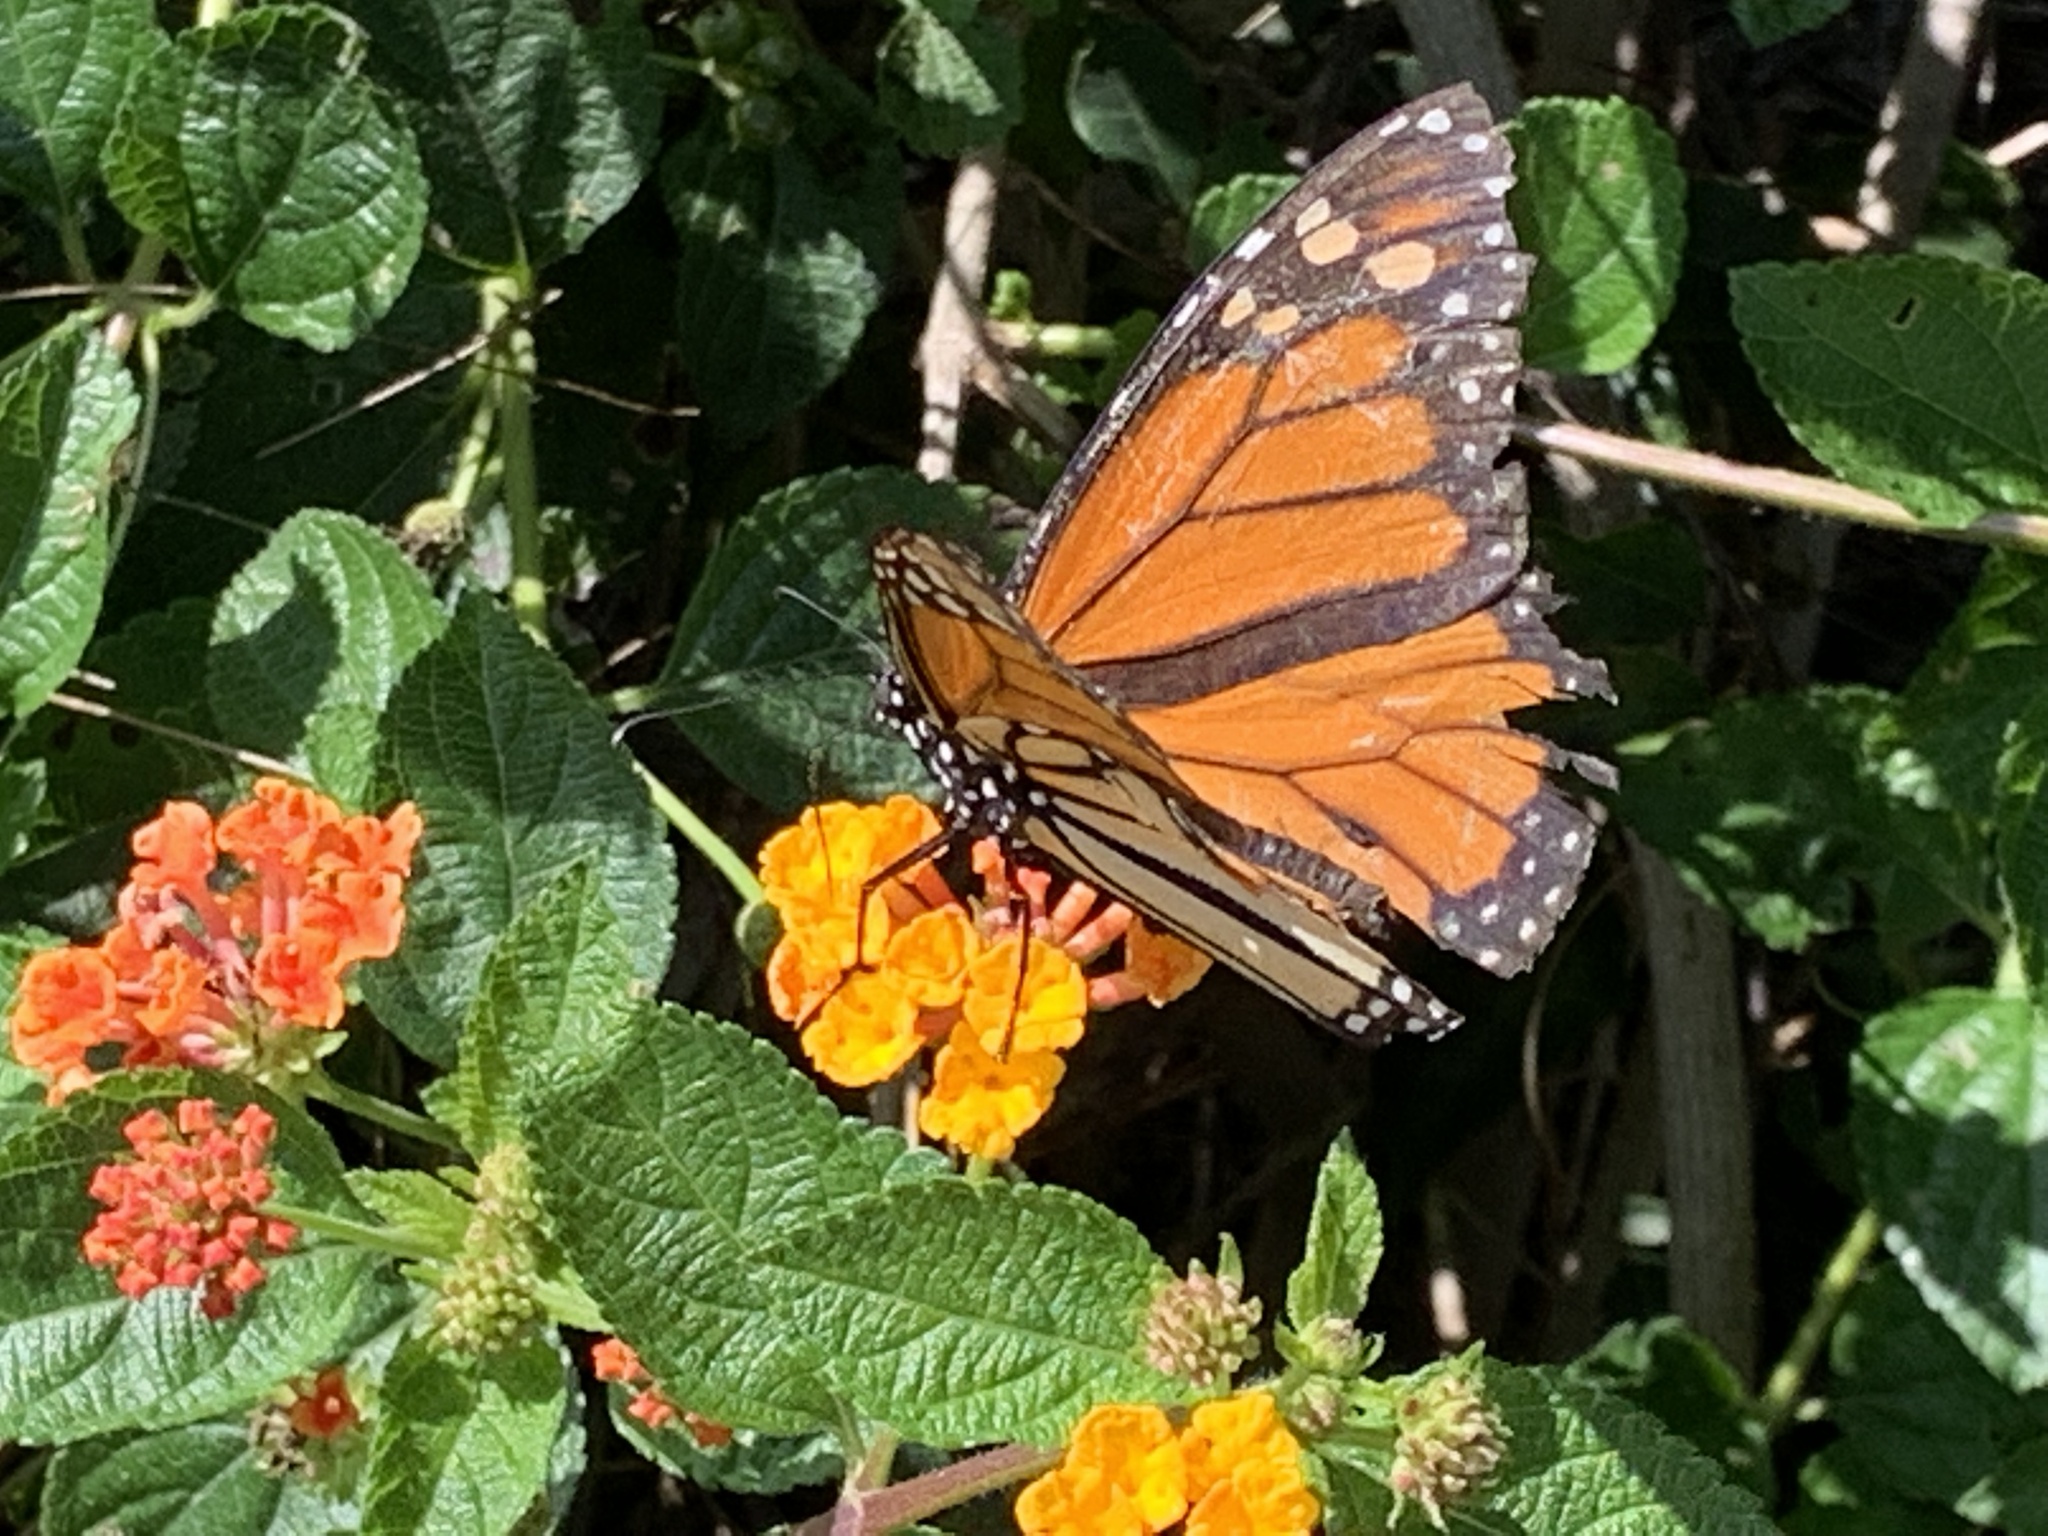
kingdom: Animalia
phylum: Arthropoda
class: Insecta
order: Lepidoptera
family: Nymphalidae
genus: Danaus
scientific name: Danaus plexippus
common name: Monarch
